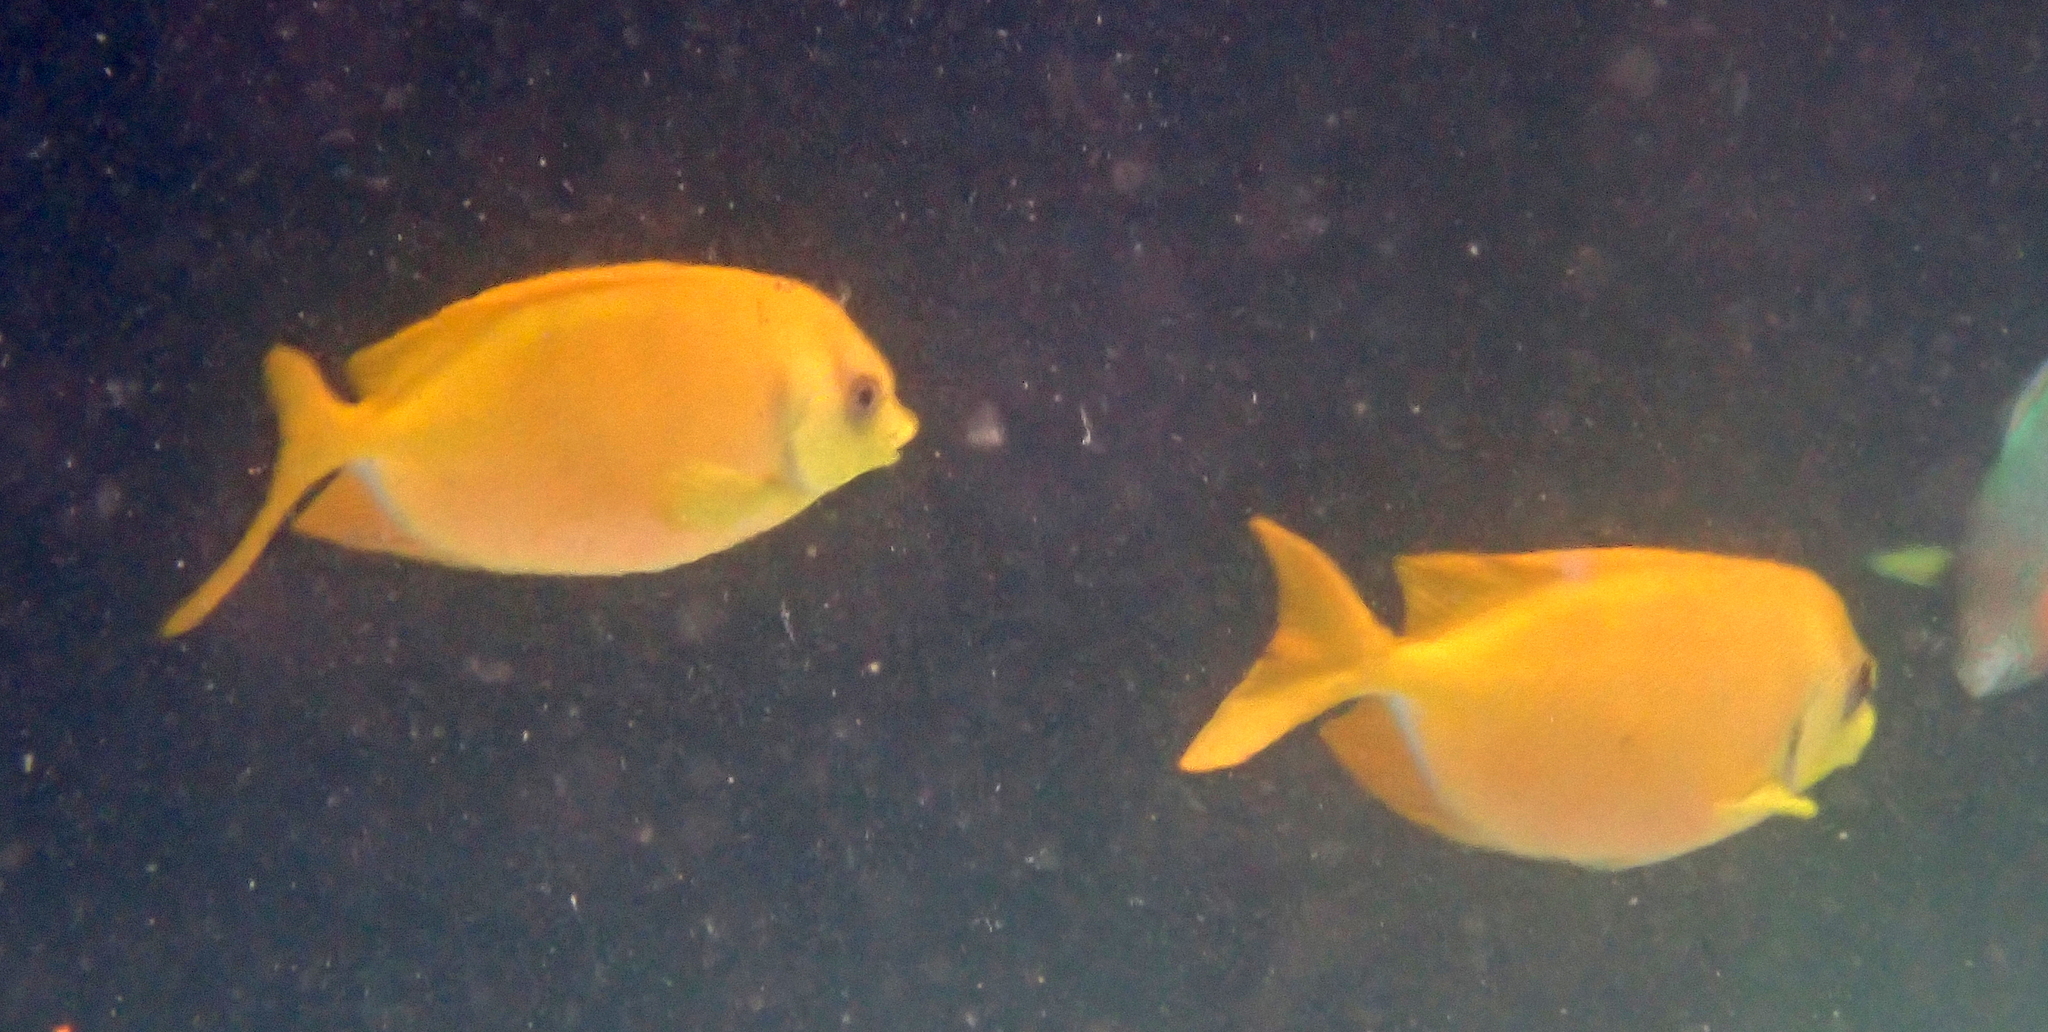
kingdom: Animalia
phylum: Chordata
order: Perciformes
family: Siganidae
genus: Siganus
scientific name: Siganus corallinus
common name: Coral rabbitfish
